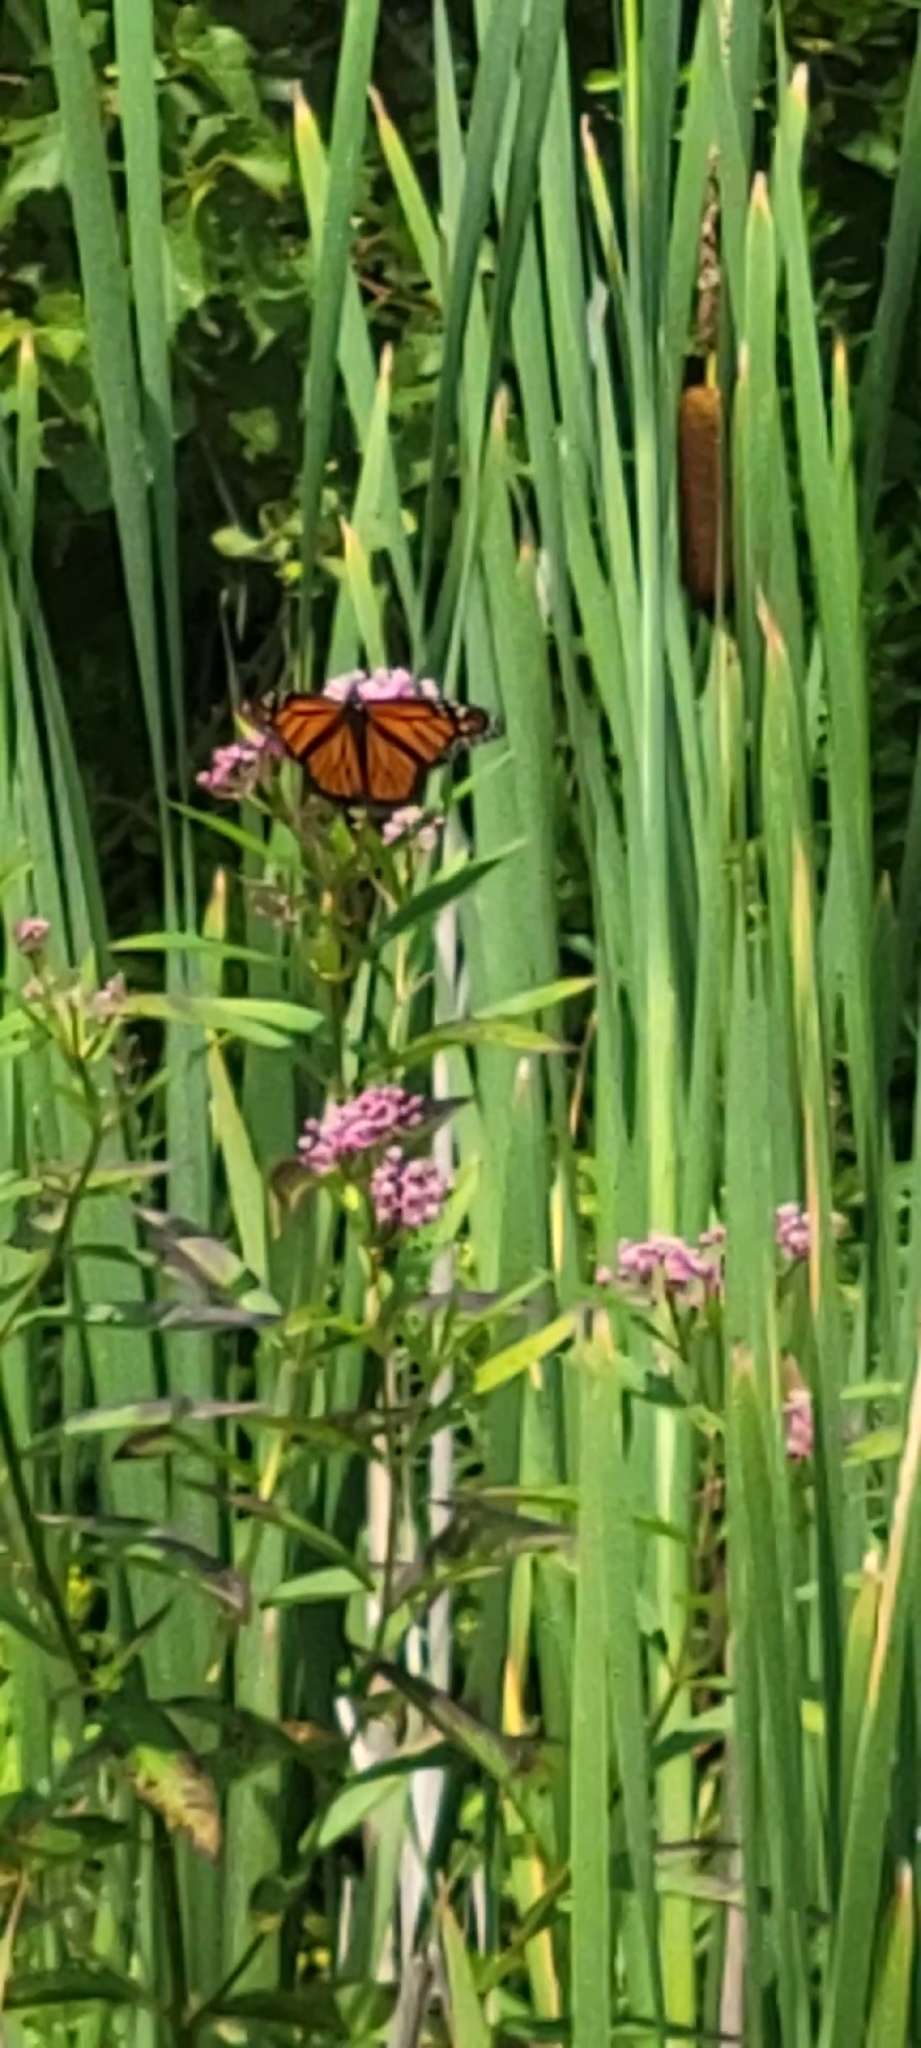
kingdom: Animalia
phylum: Arthropoda
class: Insecta
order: Lepidoptera
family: Nymphalidae
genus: Danaus
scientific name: Danaus plexippus
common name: Monarch
